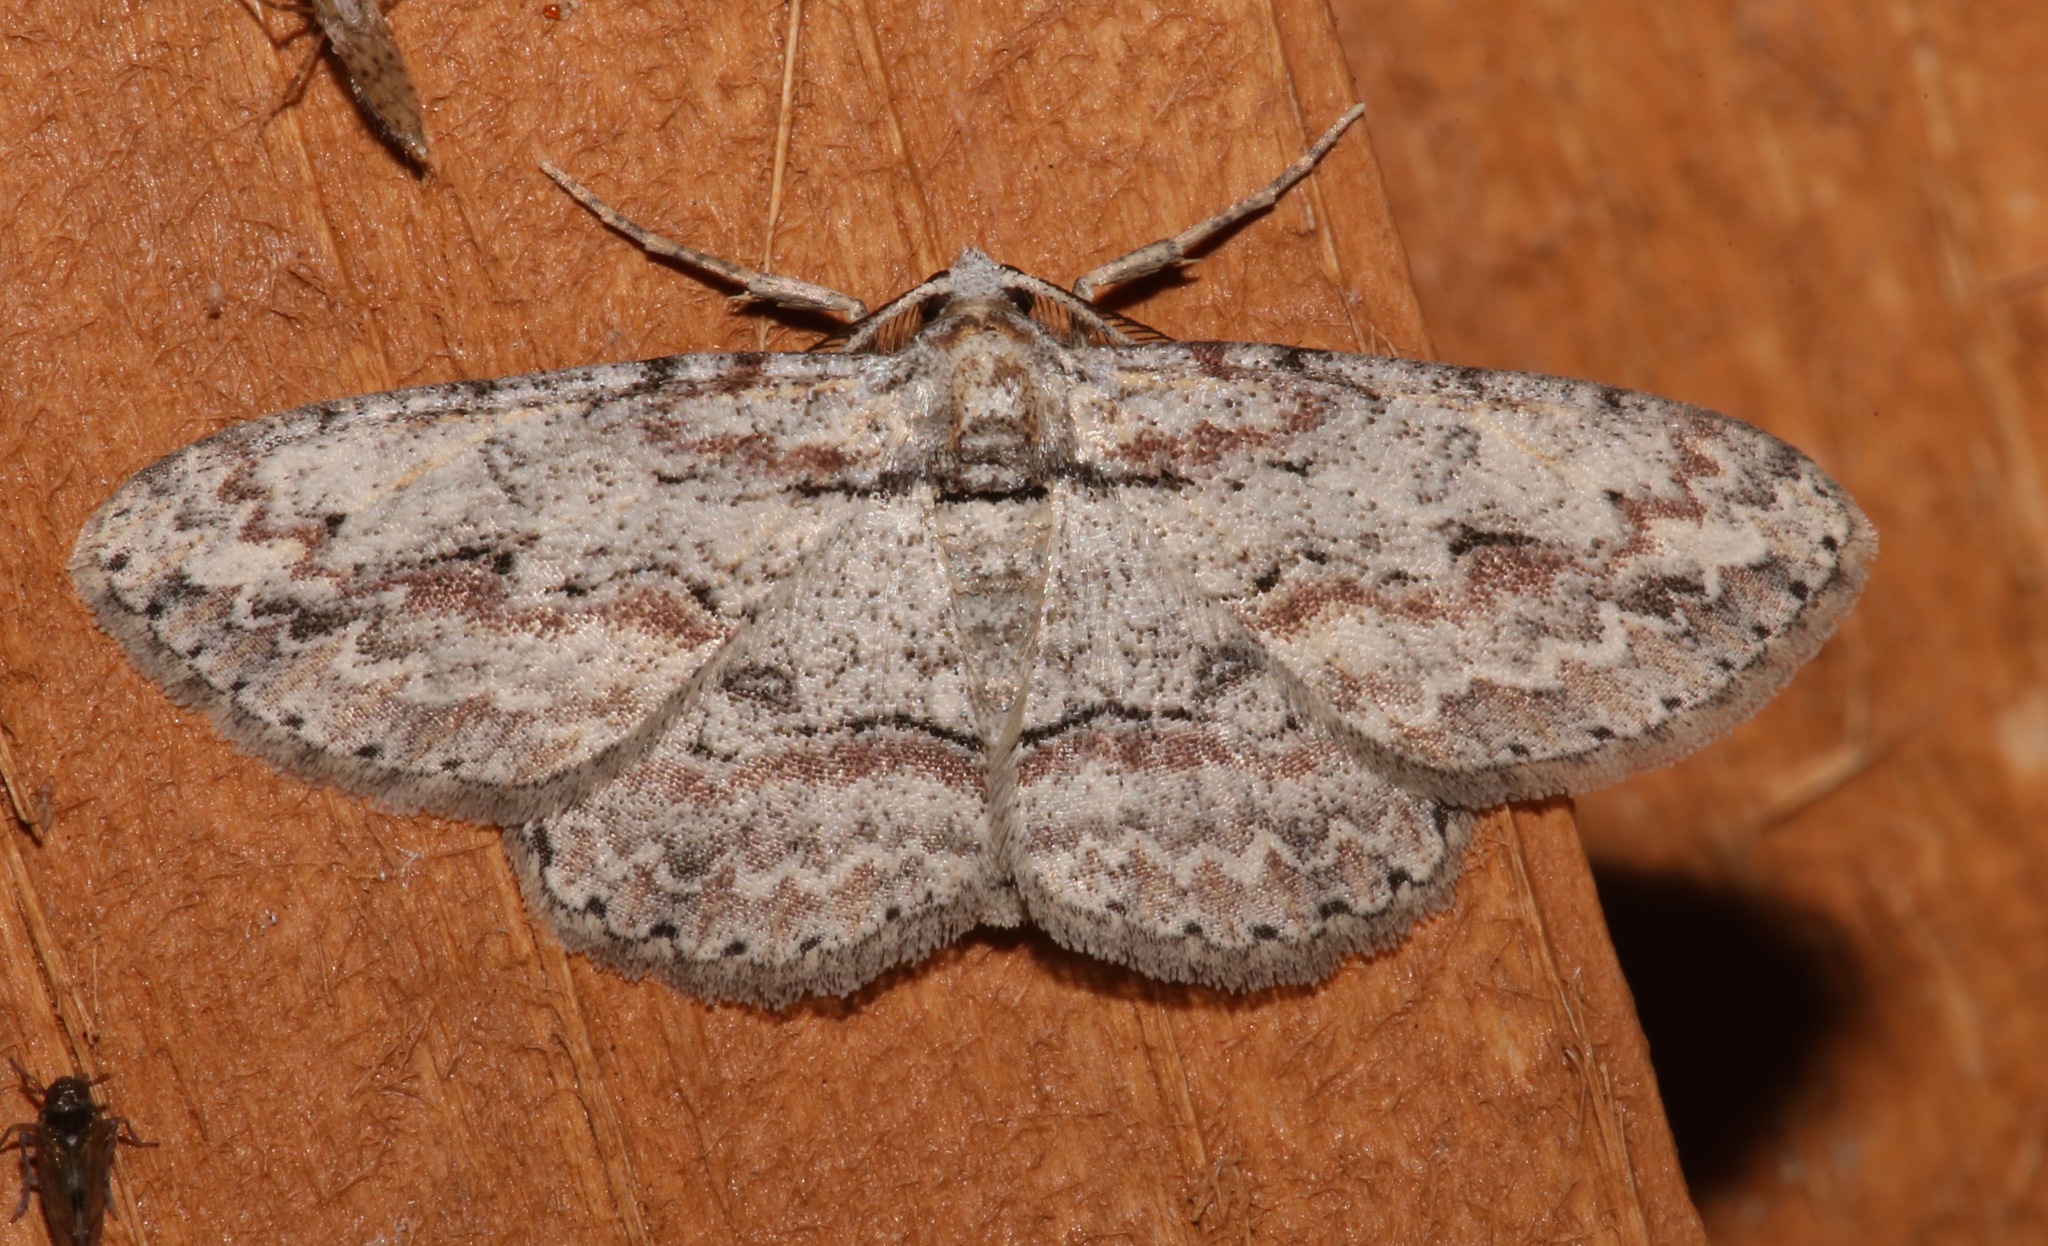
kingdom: Animalia
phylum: Arthropoda
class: Insecta
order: Lepidoptera
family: Geometridae
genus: Iridopsis
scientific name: Iridopsis defectaria
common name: Brown-shaded gray
